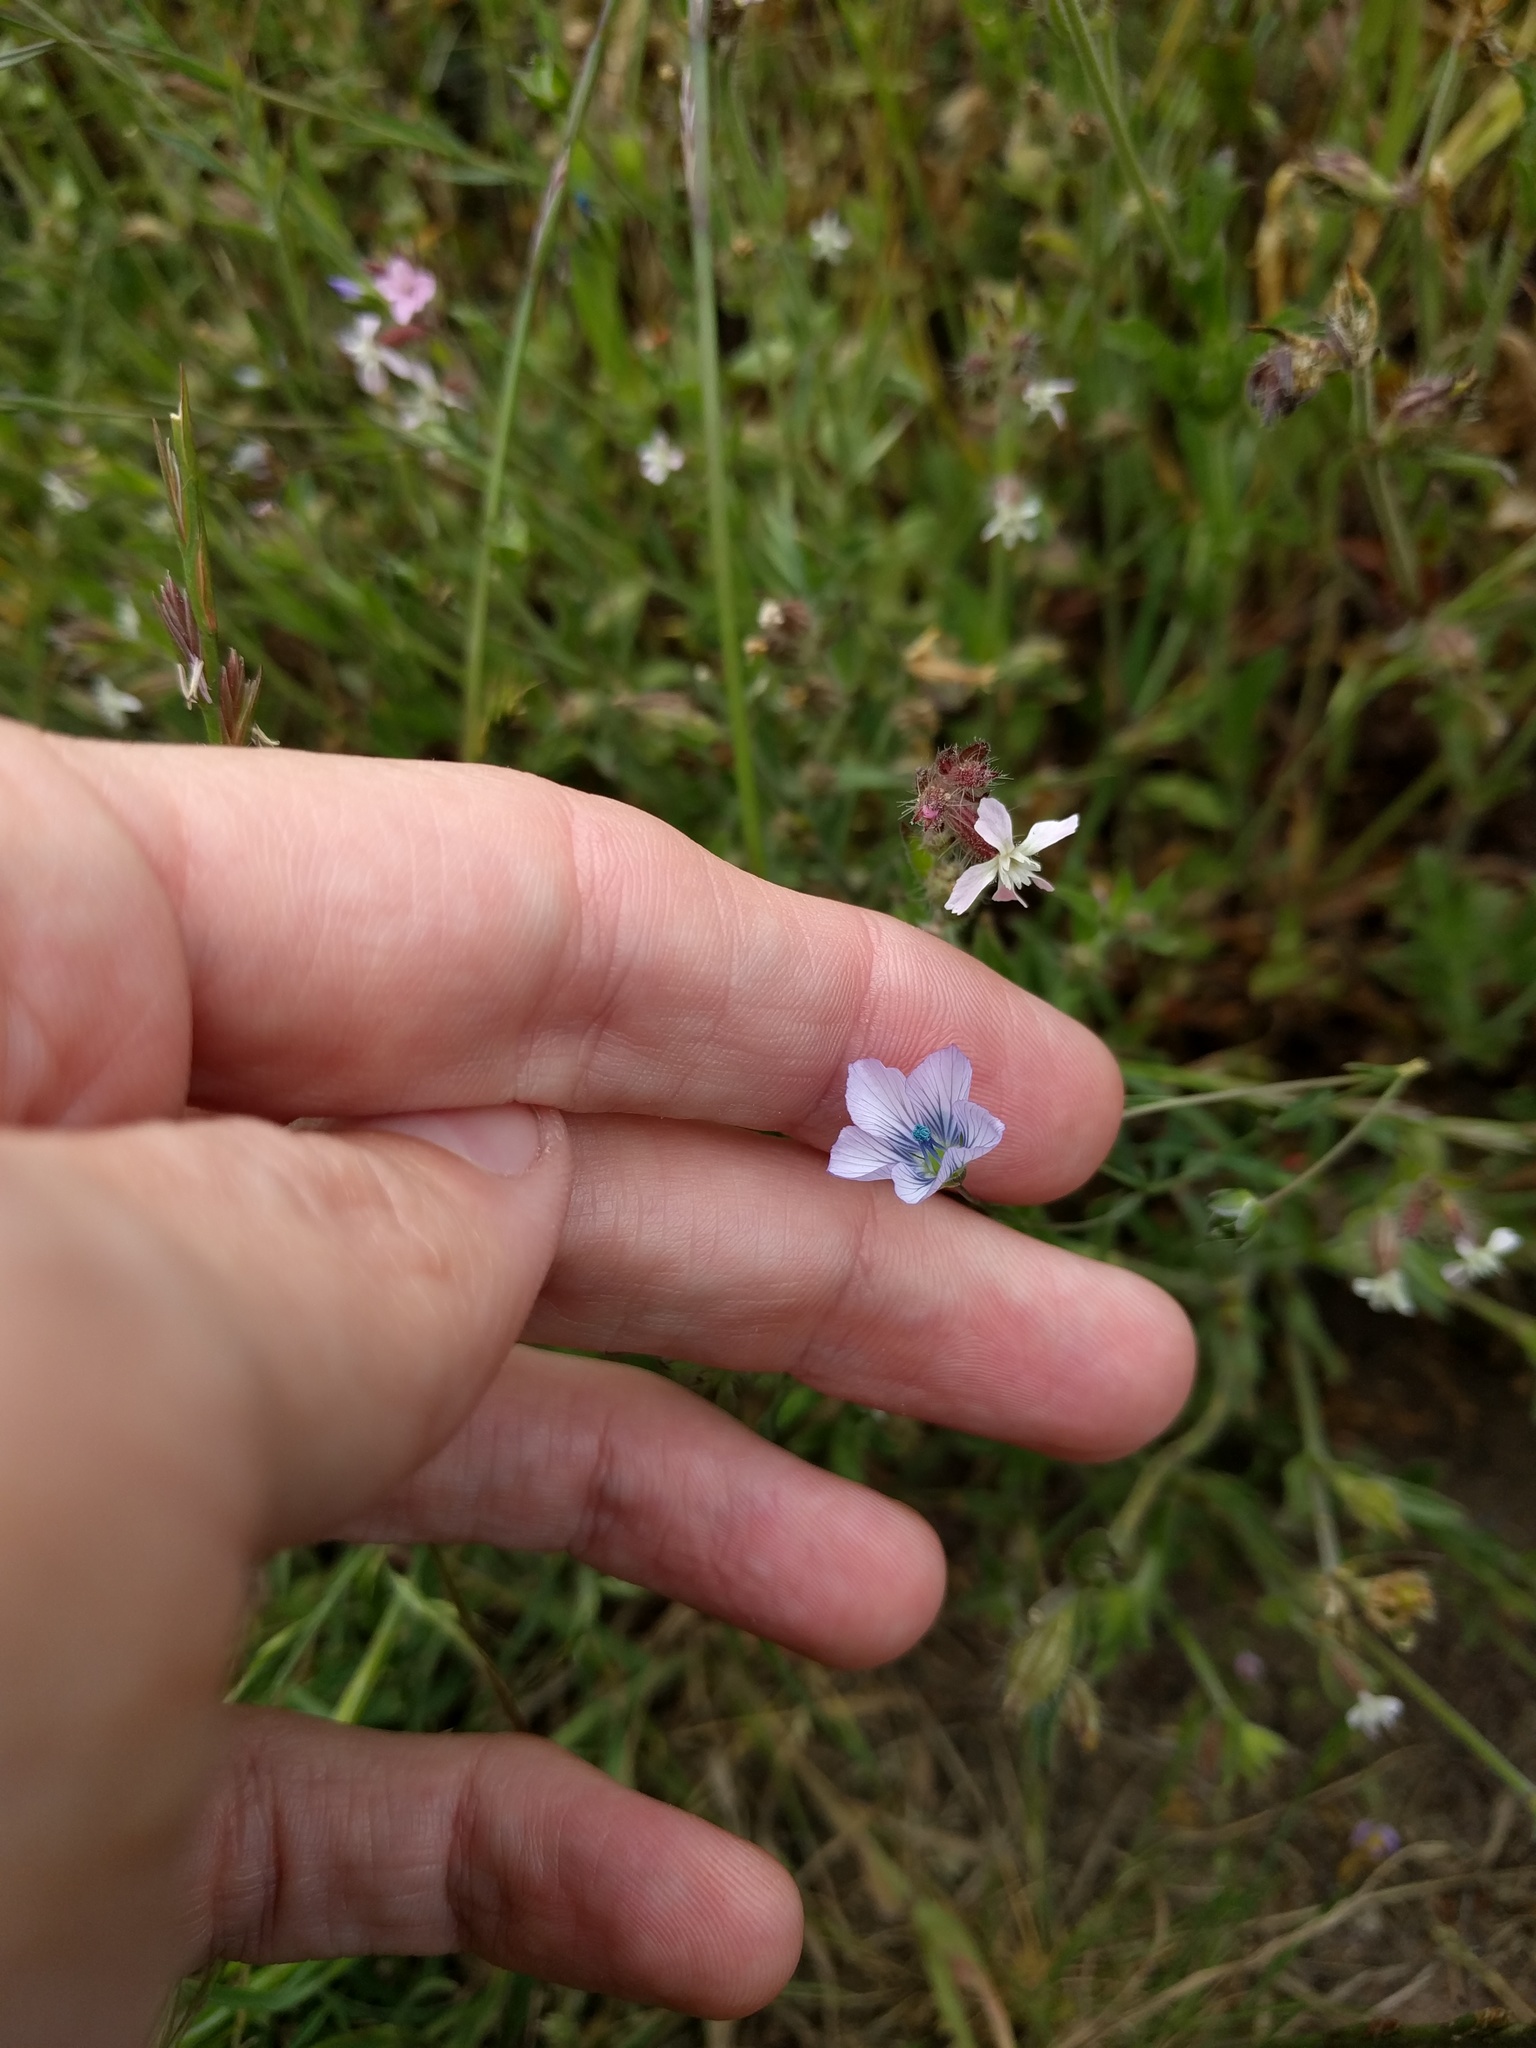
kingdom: Plantae
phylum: Tracheophyta
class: Magnoliopsida
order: Malpighiales
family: Linaceae
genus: Linum
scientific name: Linum bienne
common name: Pale flax
